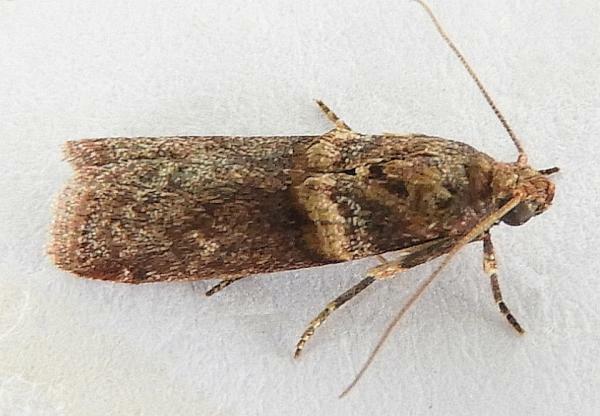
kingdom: Animalia
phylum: Arthropoda
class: Insecta
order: Lepidoptera
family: Pyralidae
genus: Anabasis
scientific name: Anabasis ochrodesma
